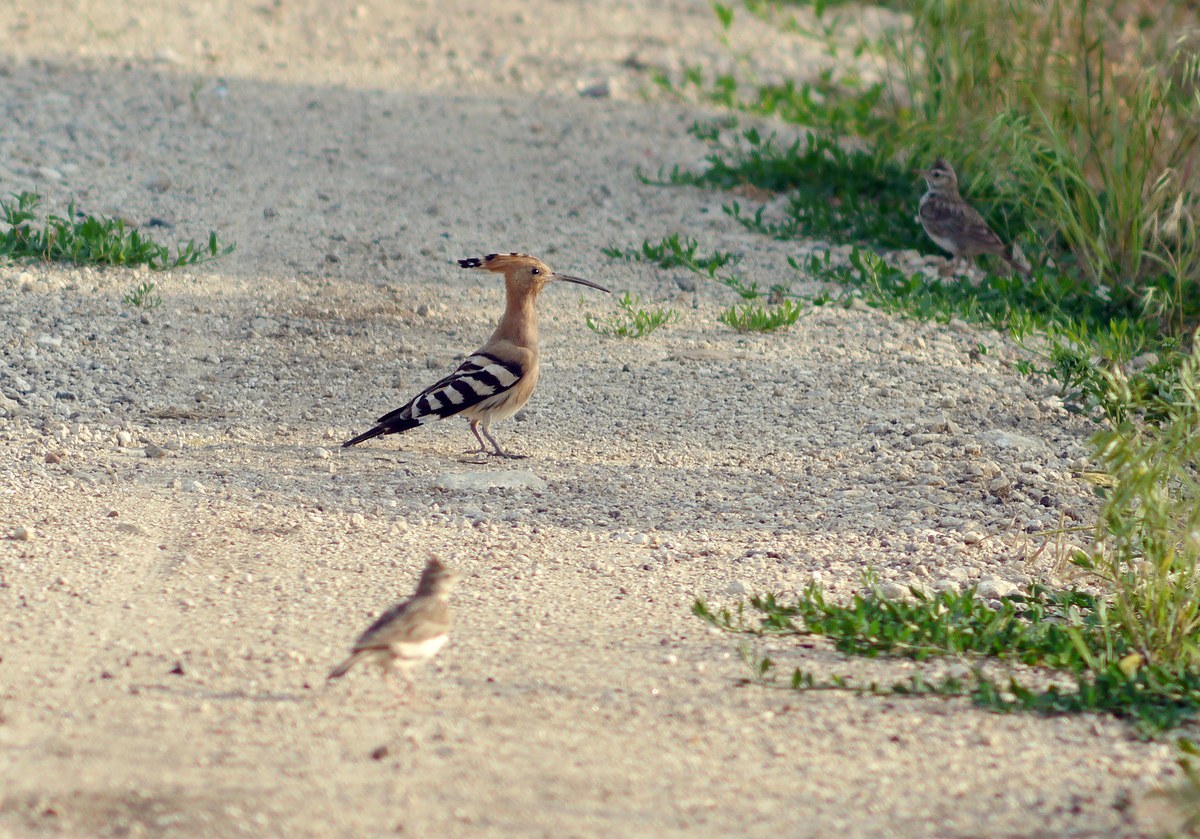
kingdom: Animalia
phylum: Chordata
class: Aves
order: Bucerotiformes
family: Upupidae
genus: Upupa
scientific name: Upupa epops
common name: Eurasian hoopoe
